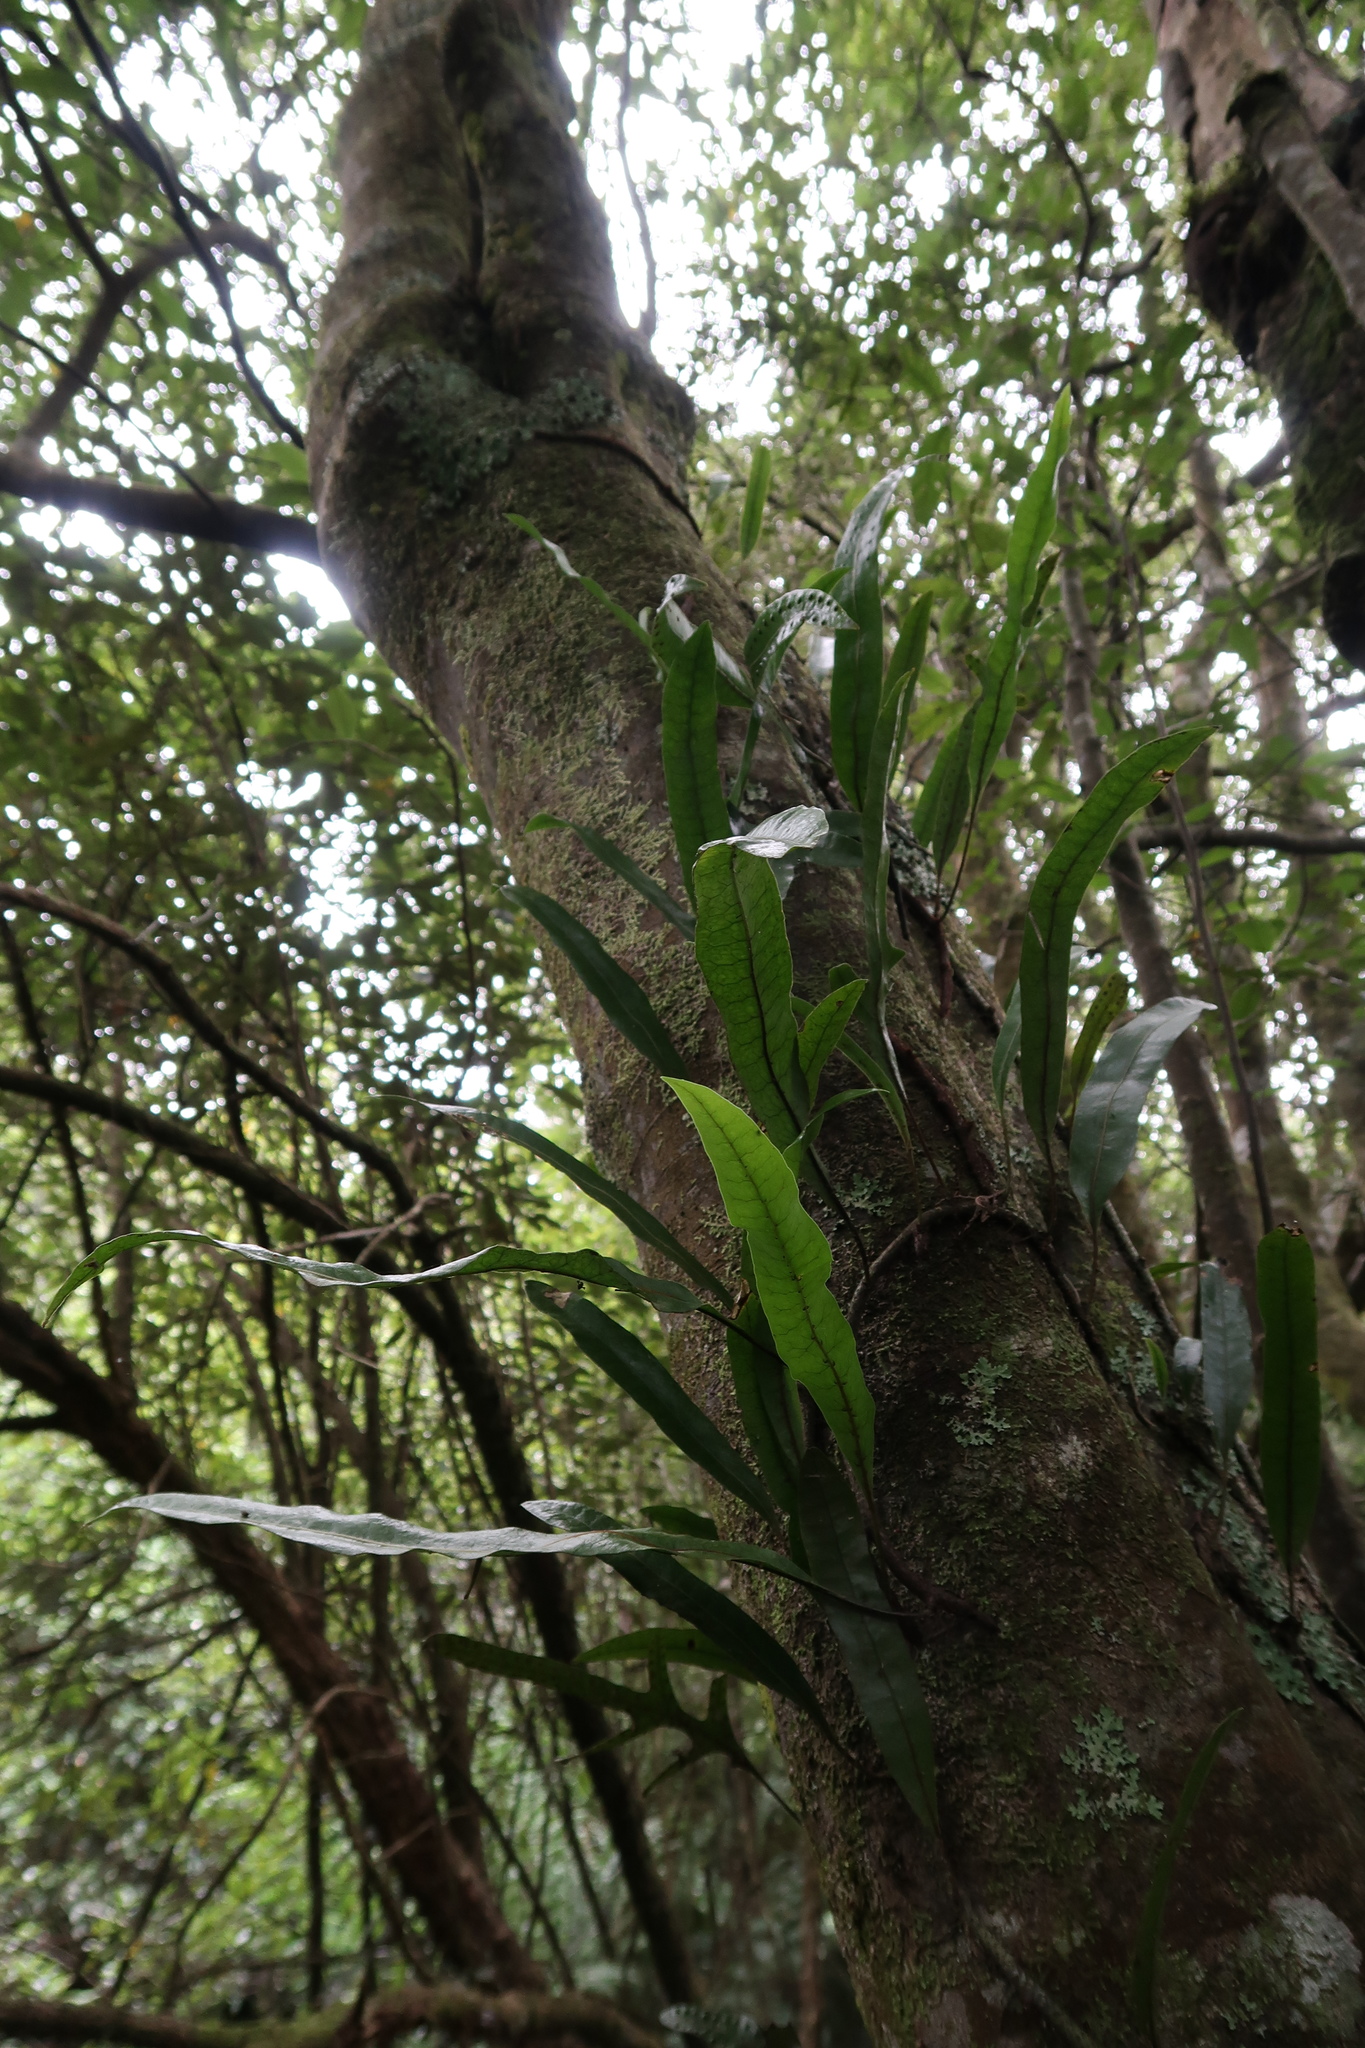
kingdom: Plantae
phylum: Tracheophyta
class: Polypodiopsida
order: Polypodiales
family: Polypodiaceae
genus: Lecanopteris
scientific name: Lecanopteris pustulata
